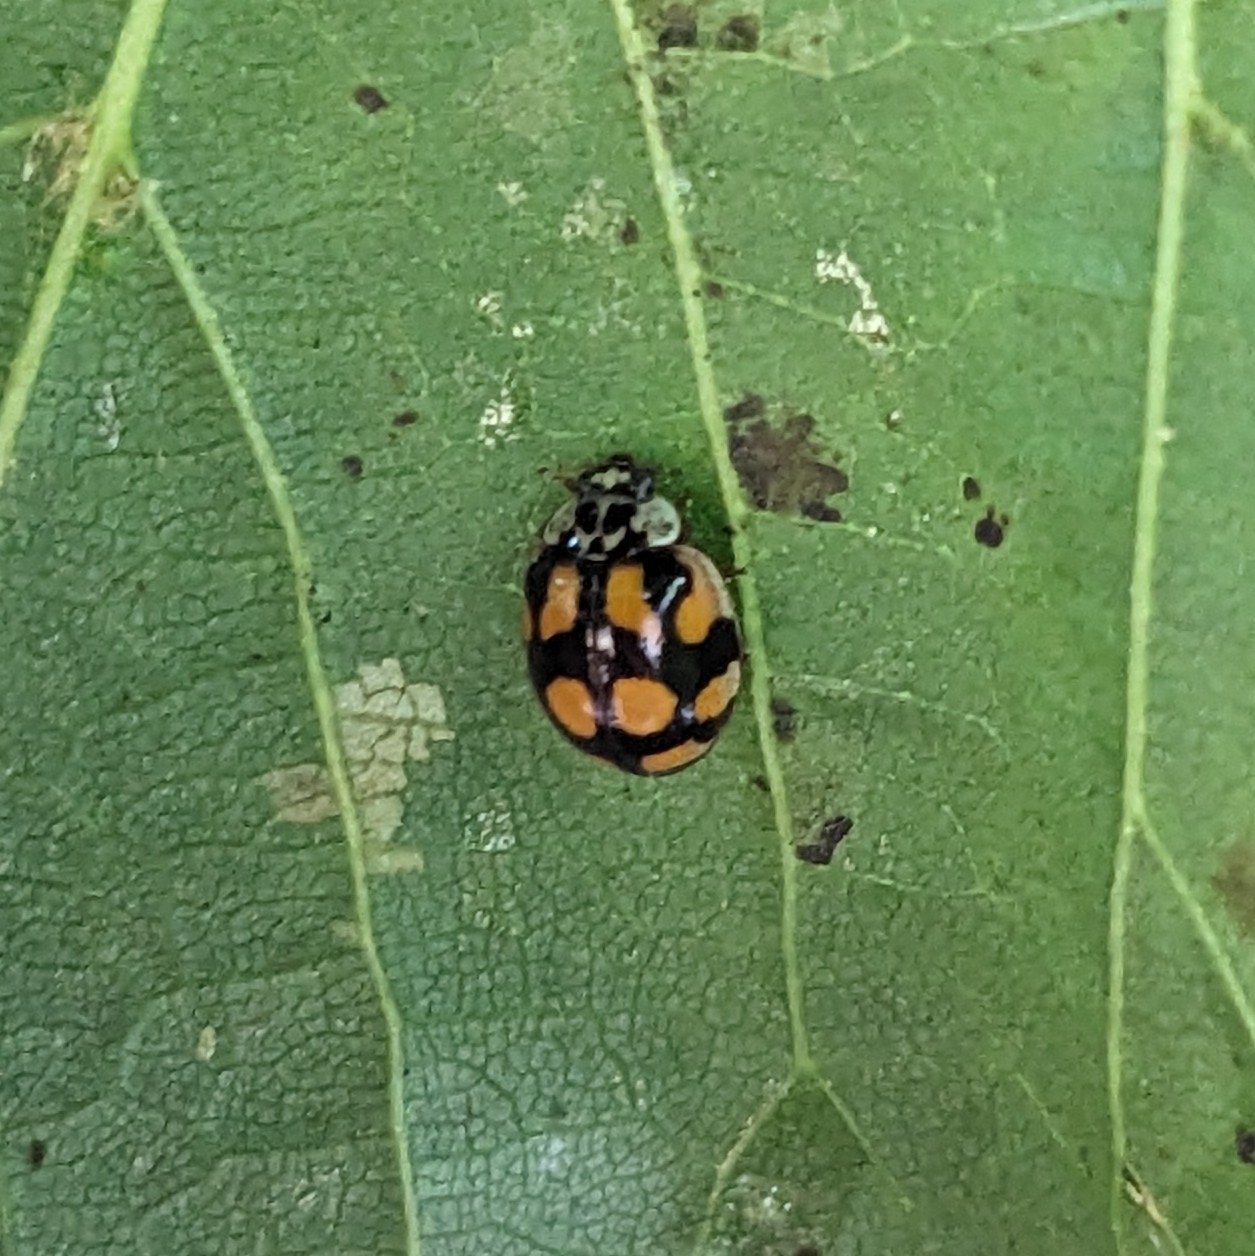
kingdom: Animalia
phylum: Arthropoda
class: Insecta
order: Coleoptera
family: Coccinellidae
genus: Adalia
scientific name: Adalia decempunctata
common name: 10-spot ladybird
